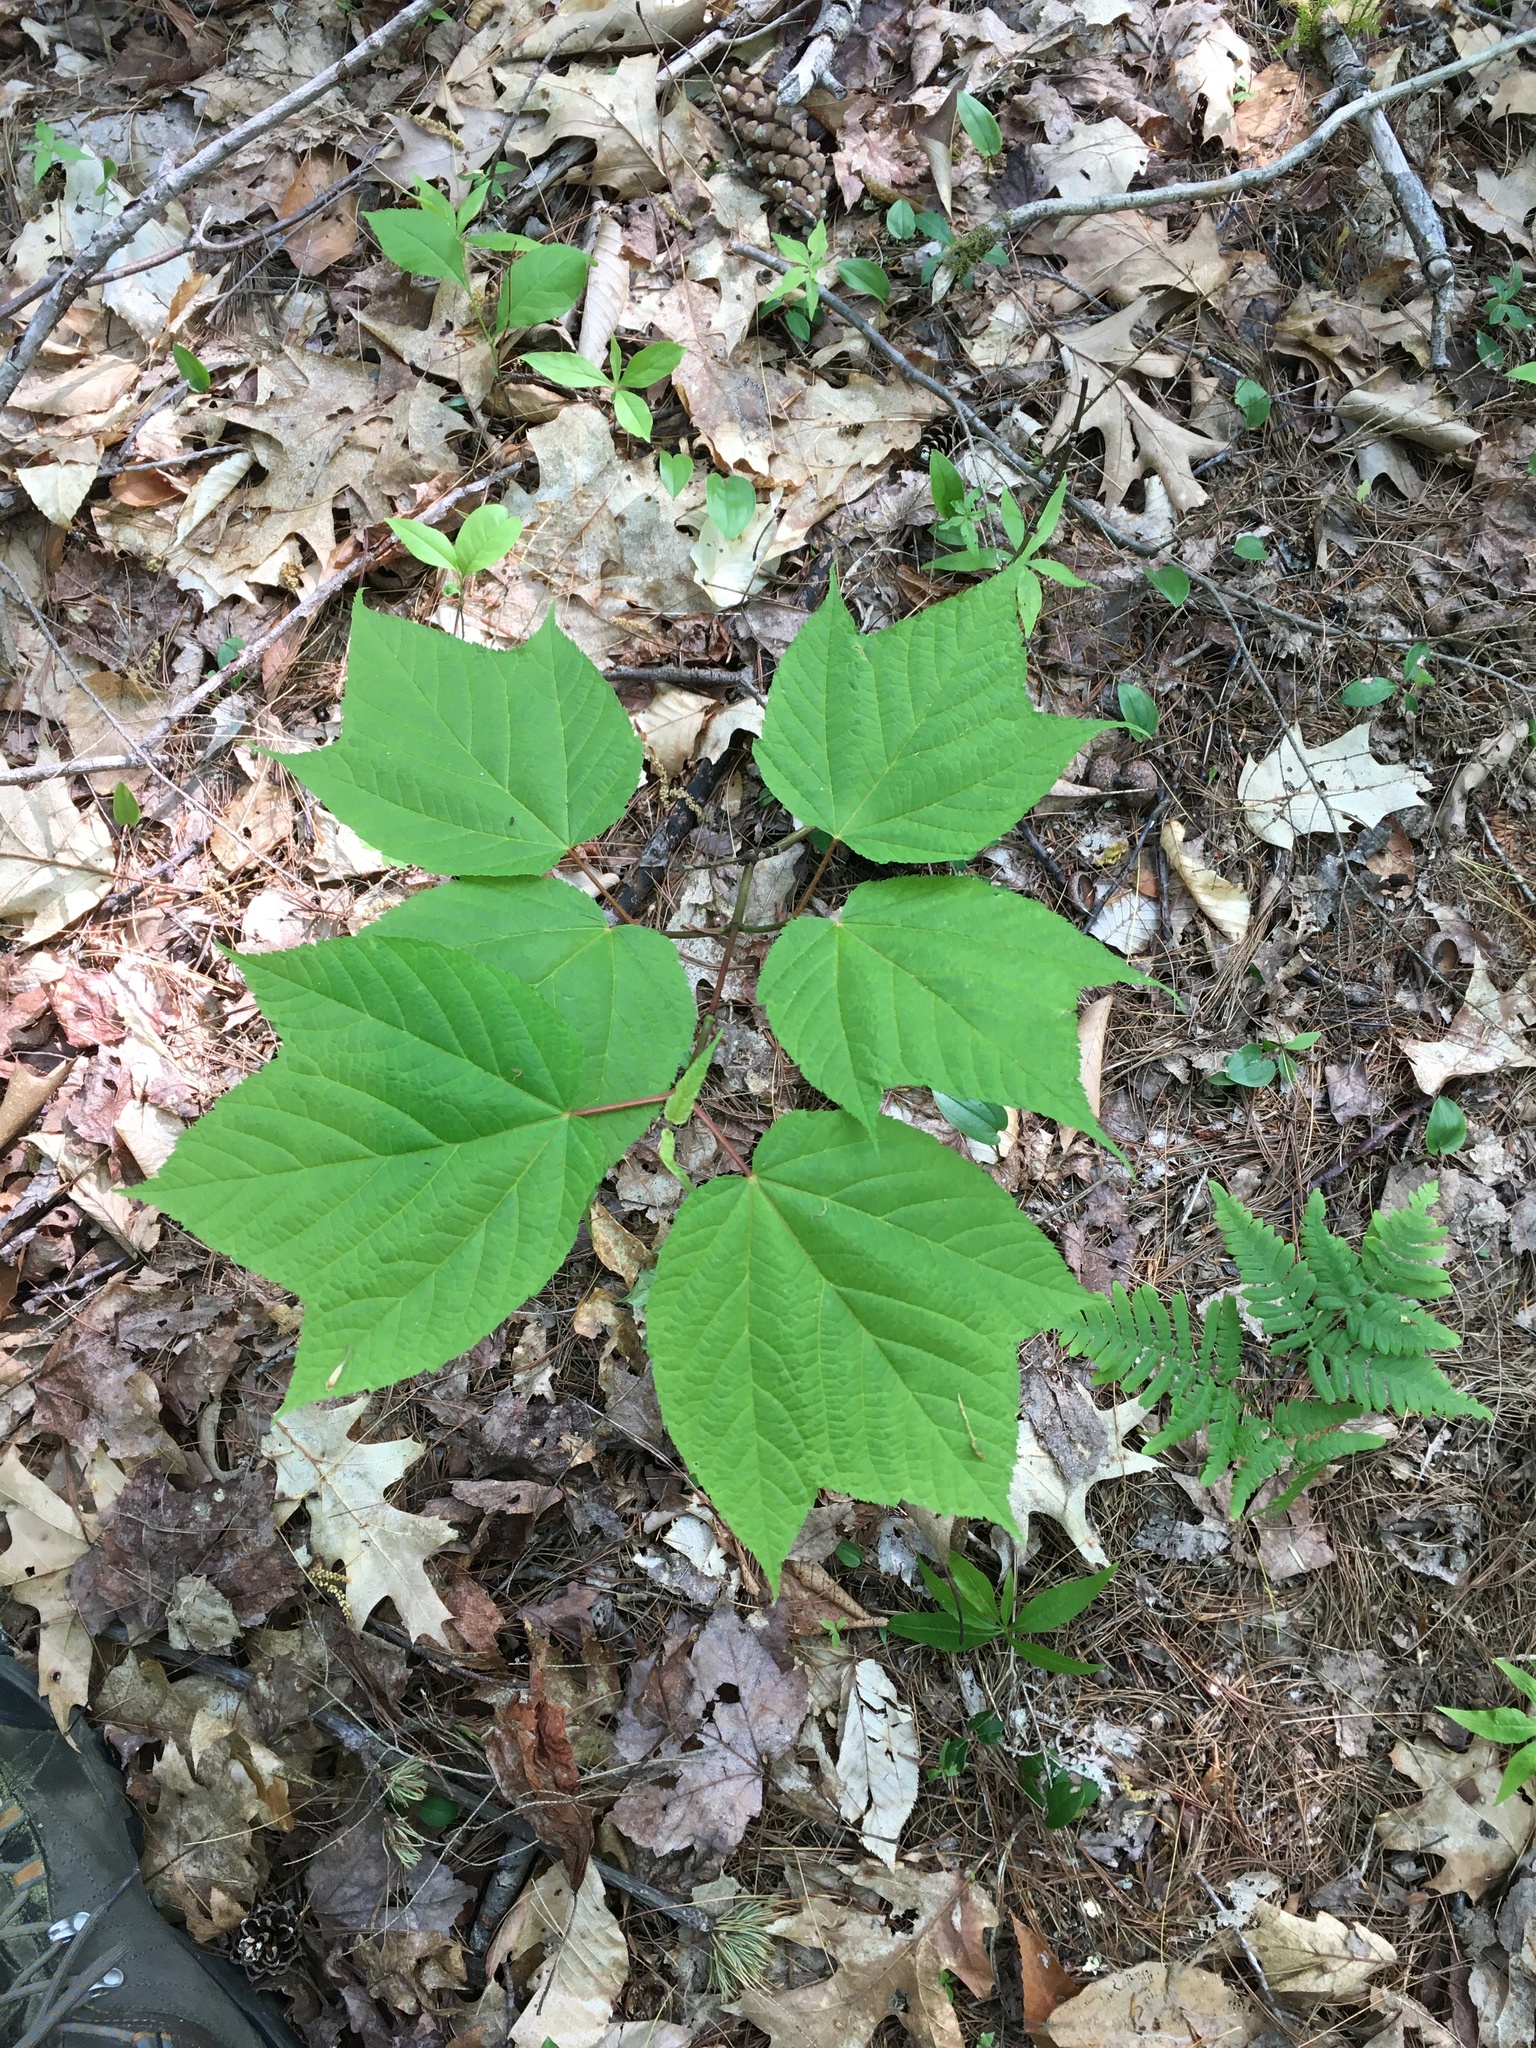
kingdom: Plantae
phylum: Tracheophyta
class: Magnoliopsida
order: Sapindales
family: Sapindaceae
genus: Acer
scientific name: Acer pensylvanicum
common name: Moosewood
